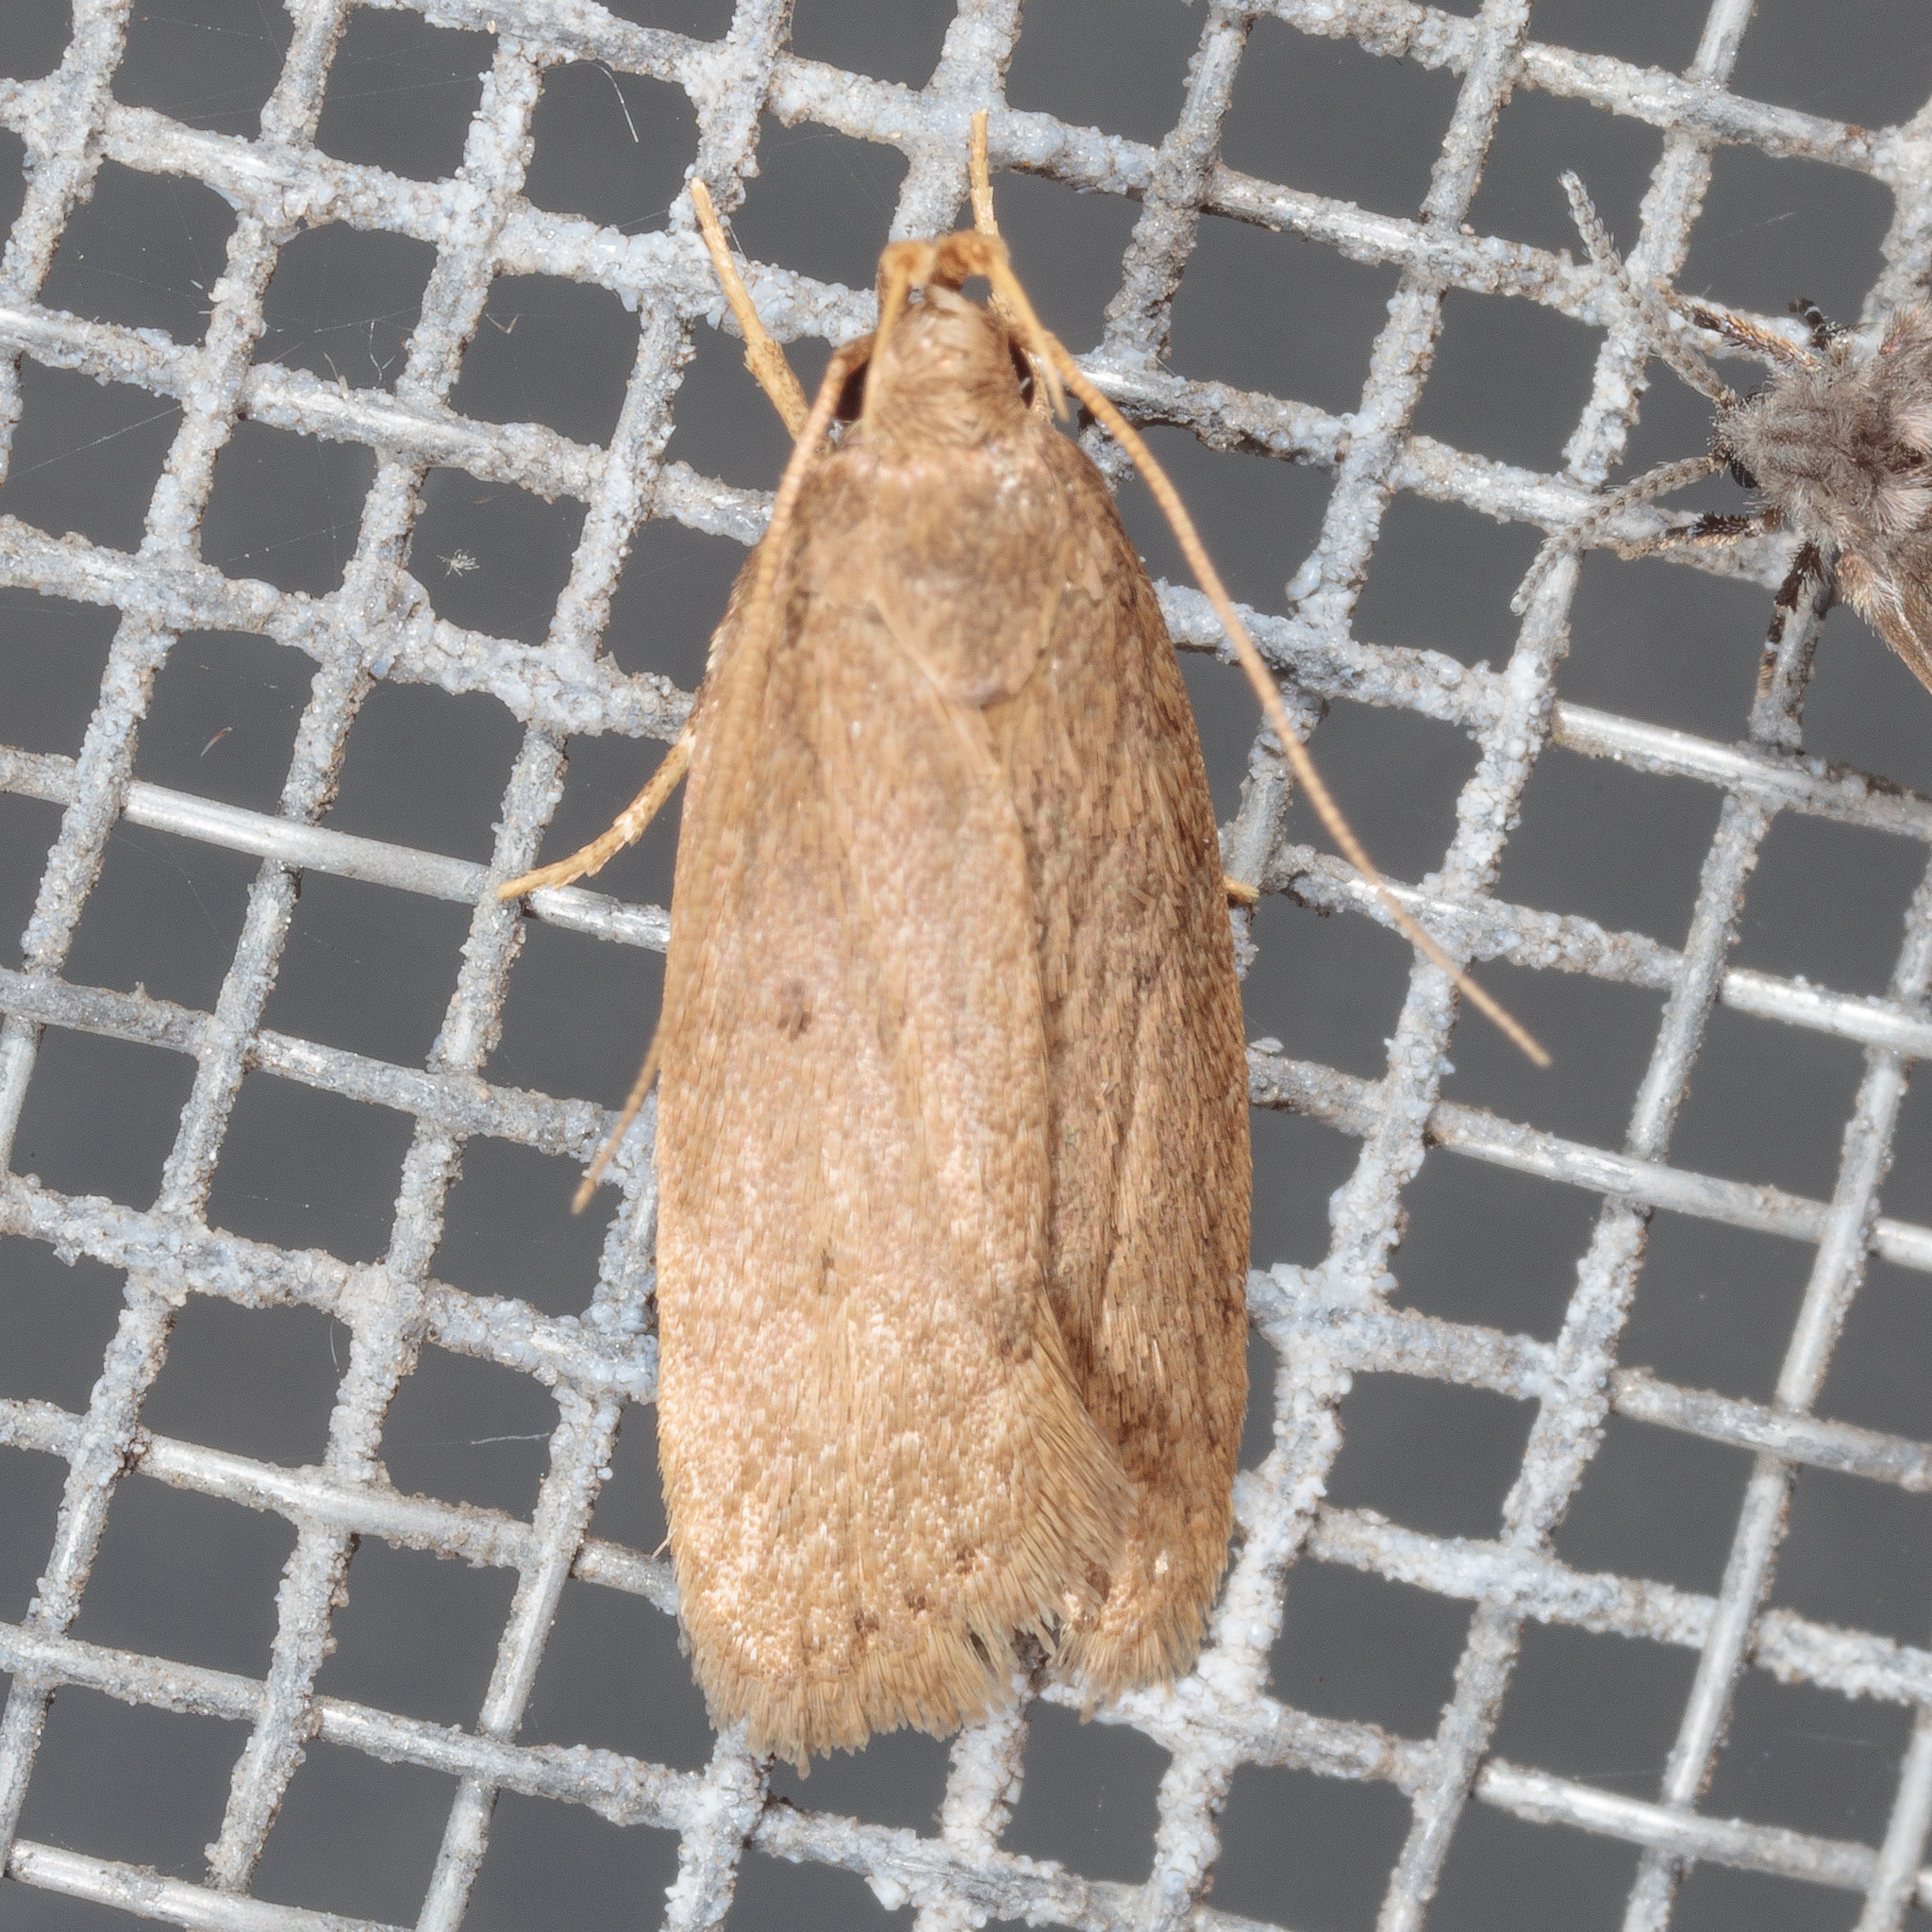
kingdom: Animalia
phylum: Arthropoda
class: Insecta
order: Lepidoptera
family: Autostichidae
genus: Autosticha
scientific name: Autosticha kyotensis
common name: Kyoto moth
